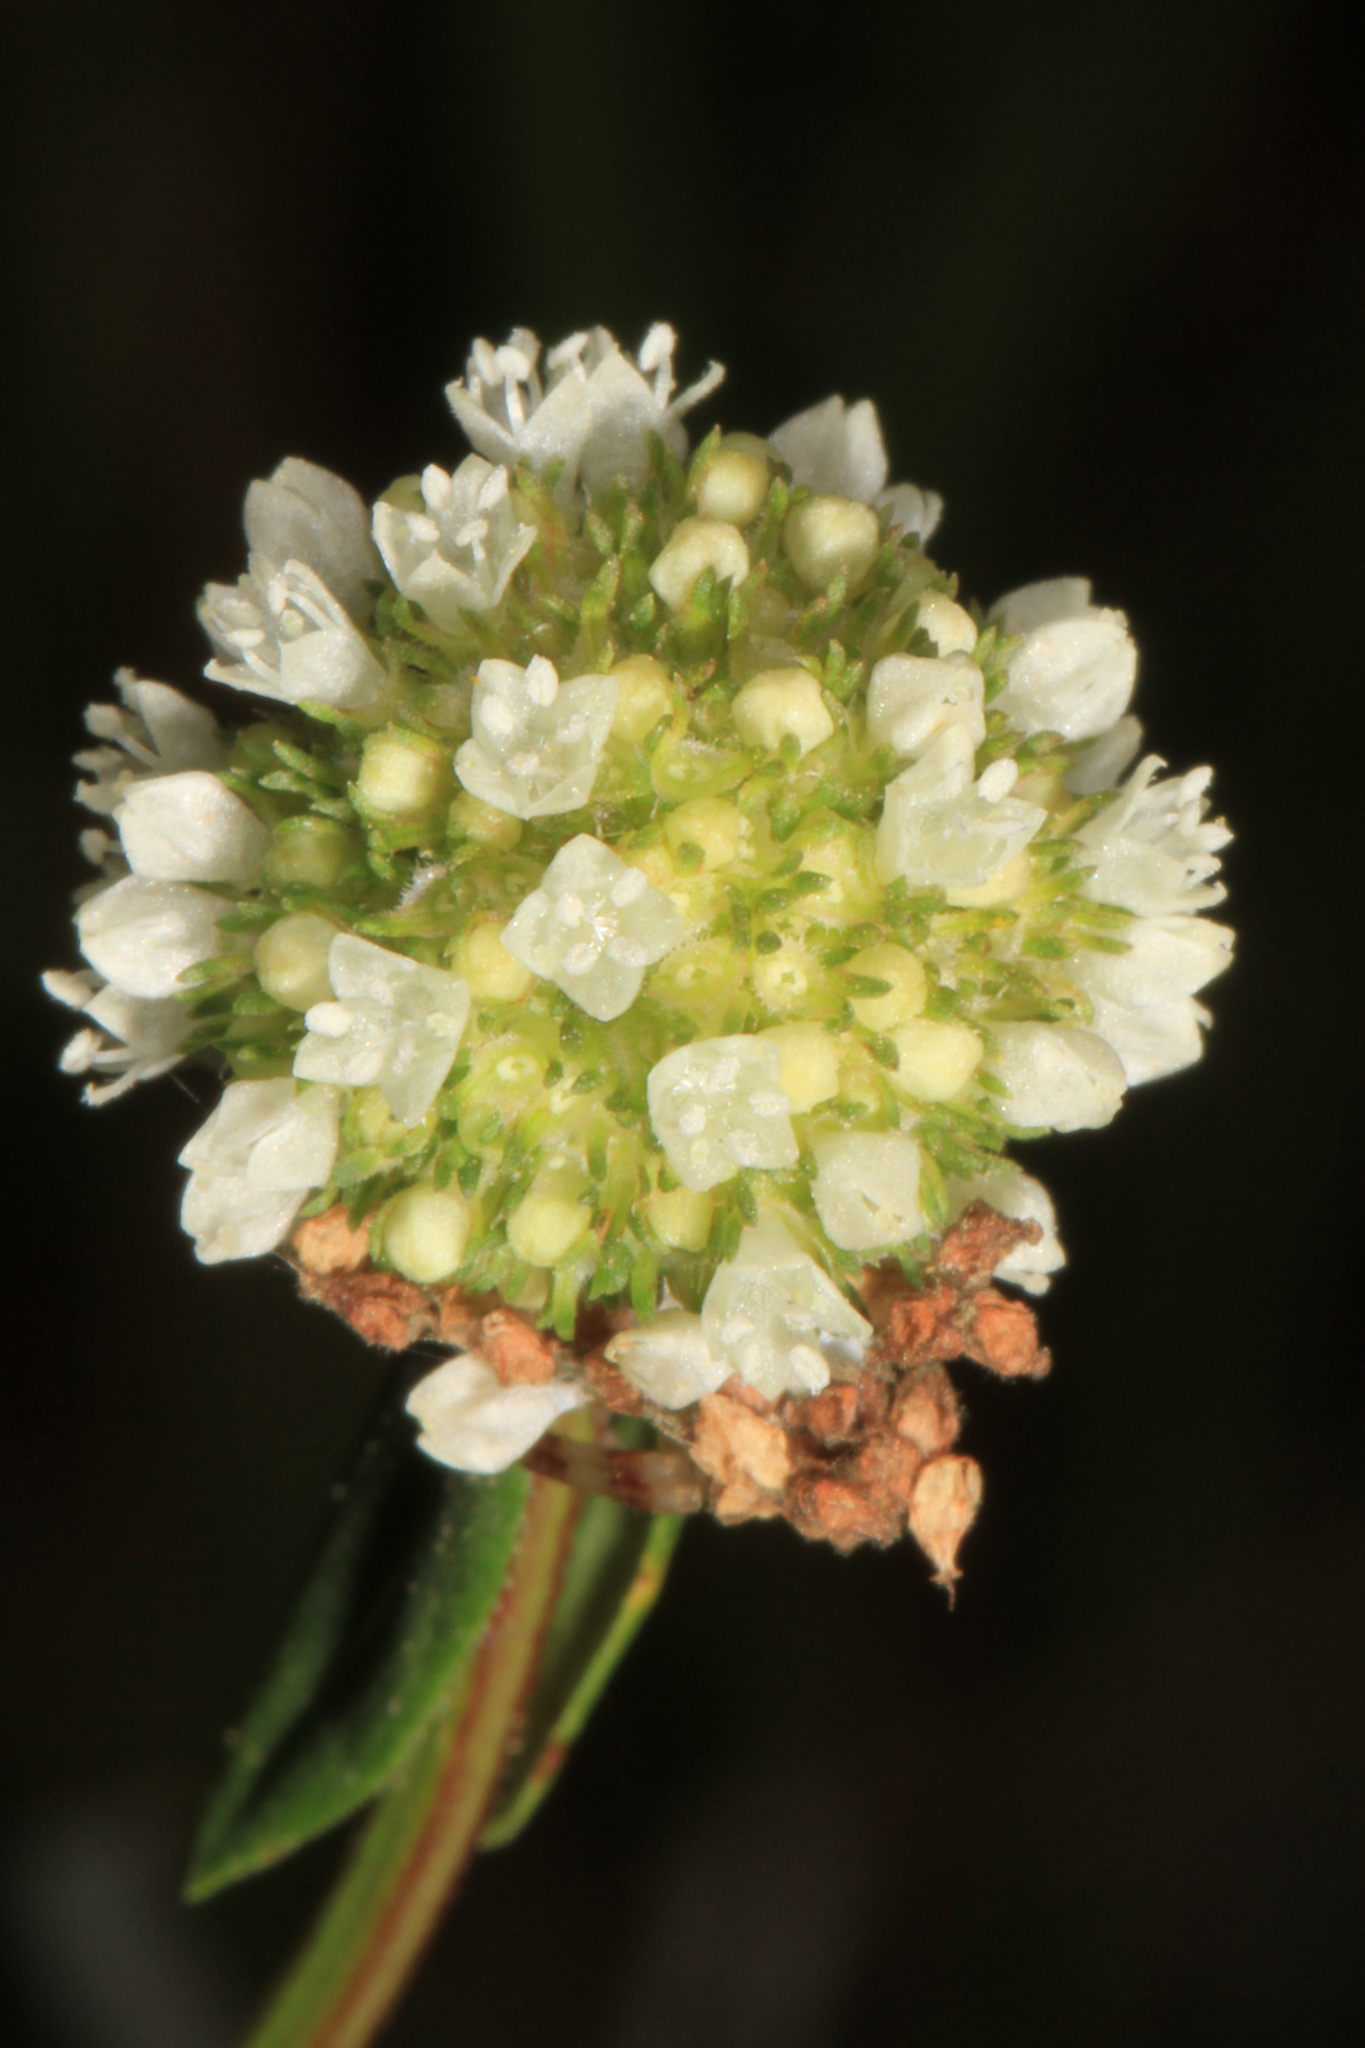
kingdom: Plantae
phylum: Tracheophyta
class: Magnoliopsida
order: Gentianales
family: Rubiaceae
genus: Spermacoce
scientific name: Spermacoce verticillata
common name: Shrubby false buttonweed
